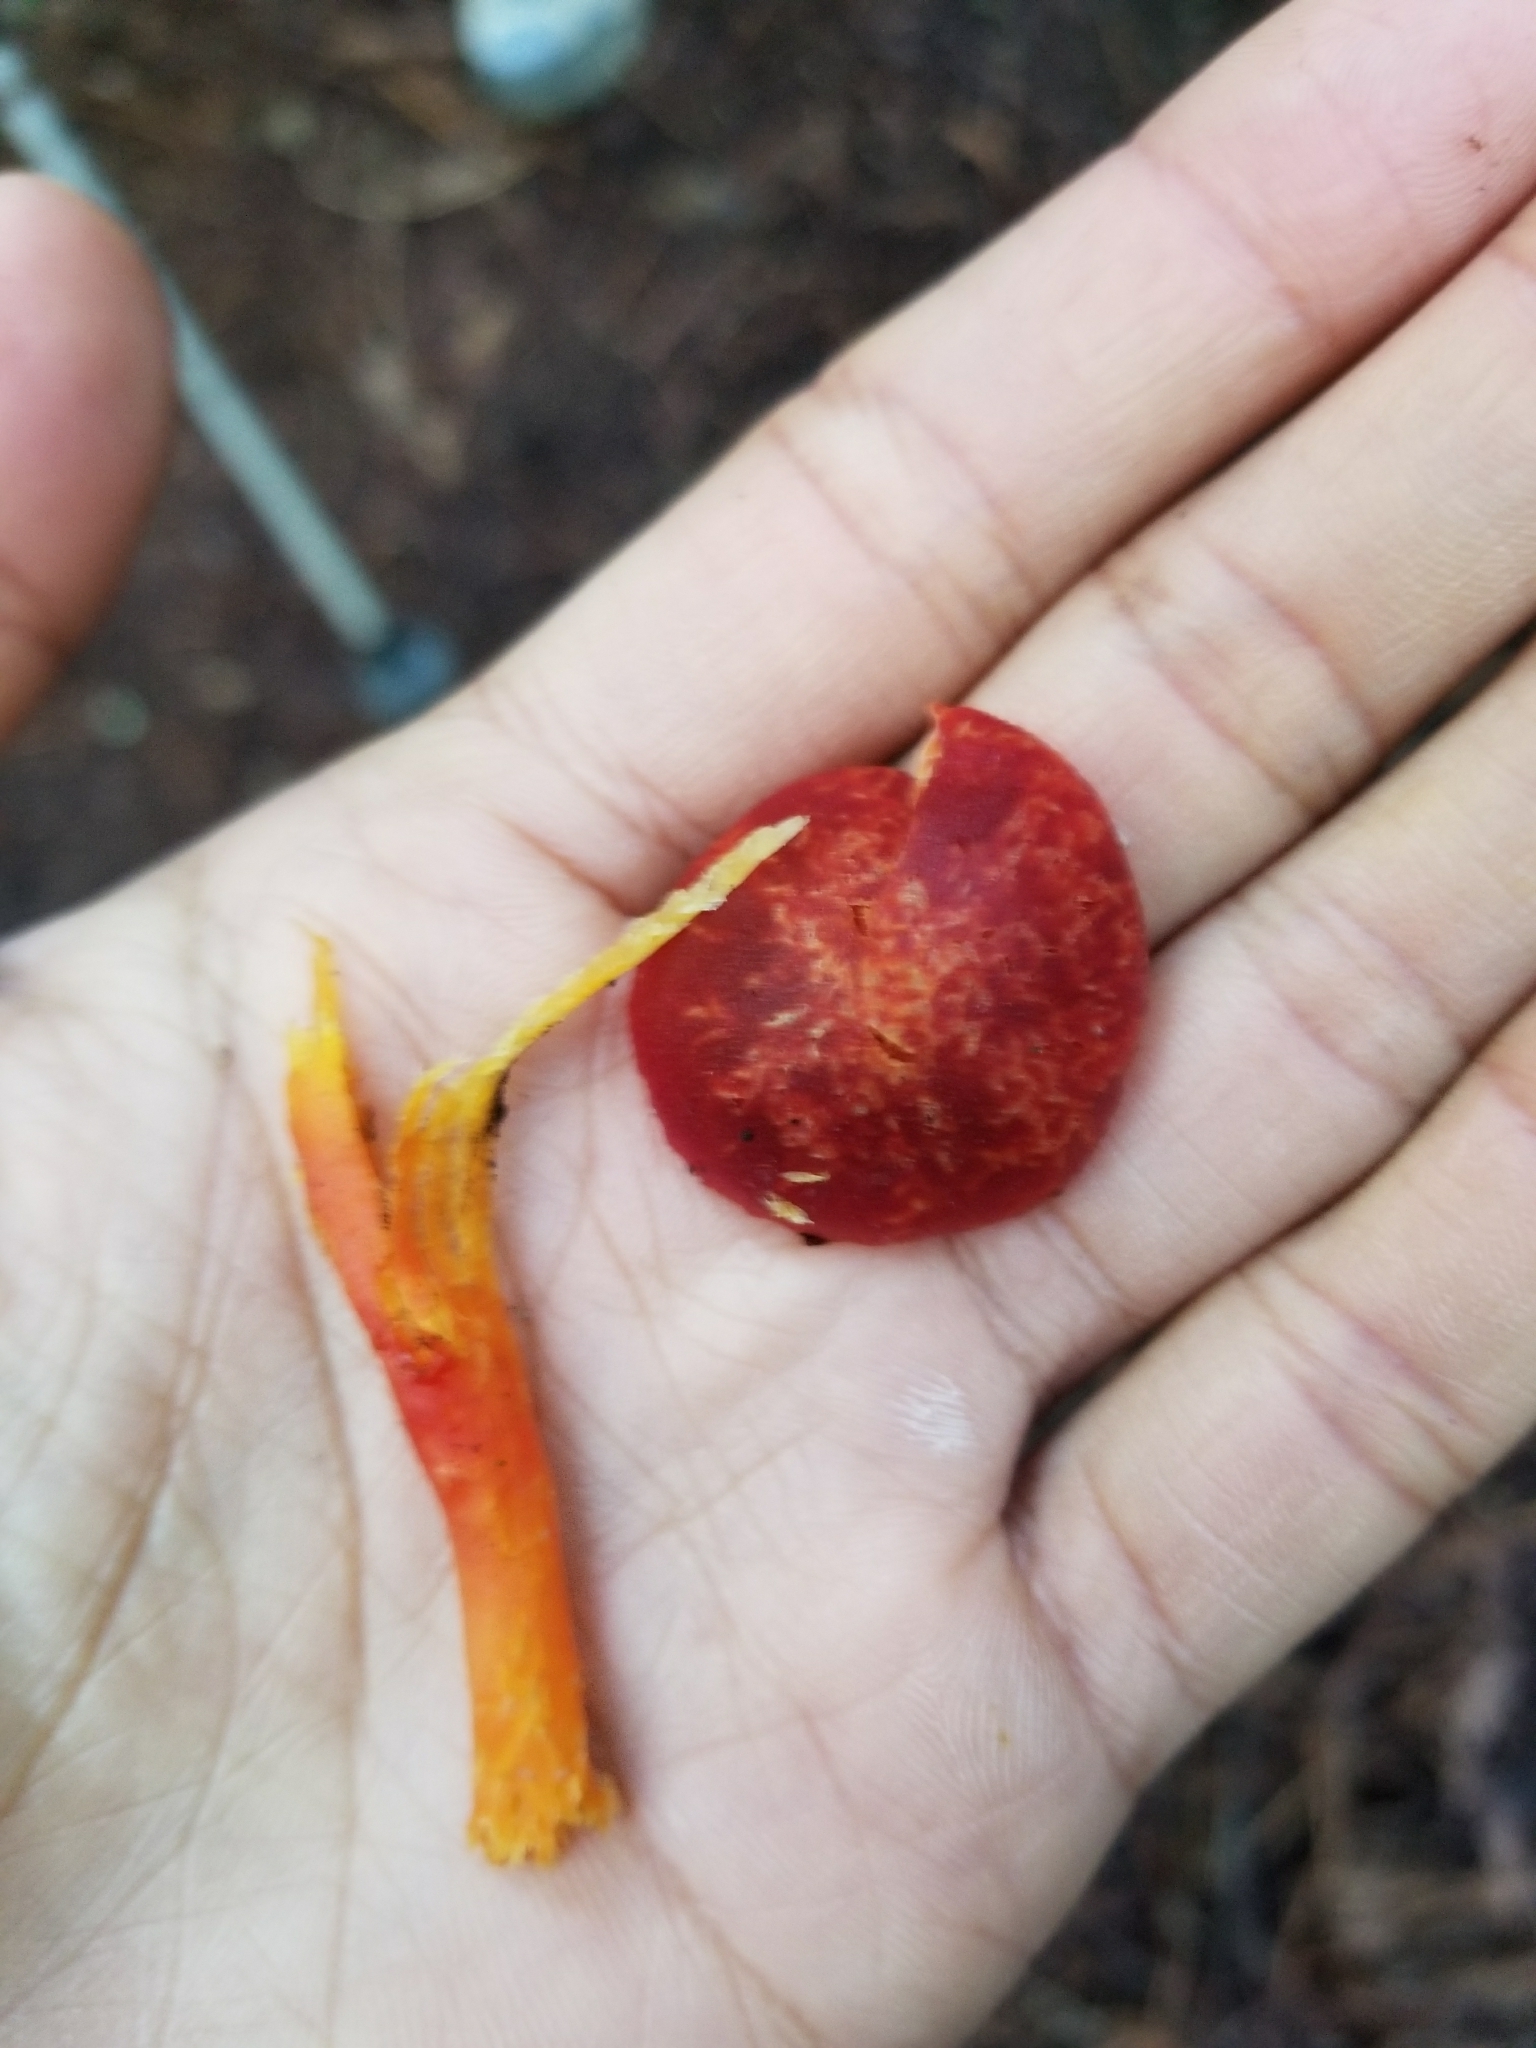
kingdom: Fungi
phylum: Basidiomycota
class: Agaricomycetes
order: Agaricales
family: Hygrophoraceae
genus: Hygrocybe
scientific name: Hygrocybe coccinea
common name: Scarlet hood
